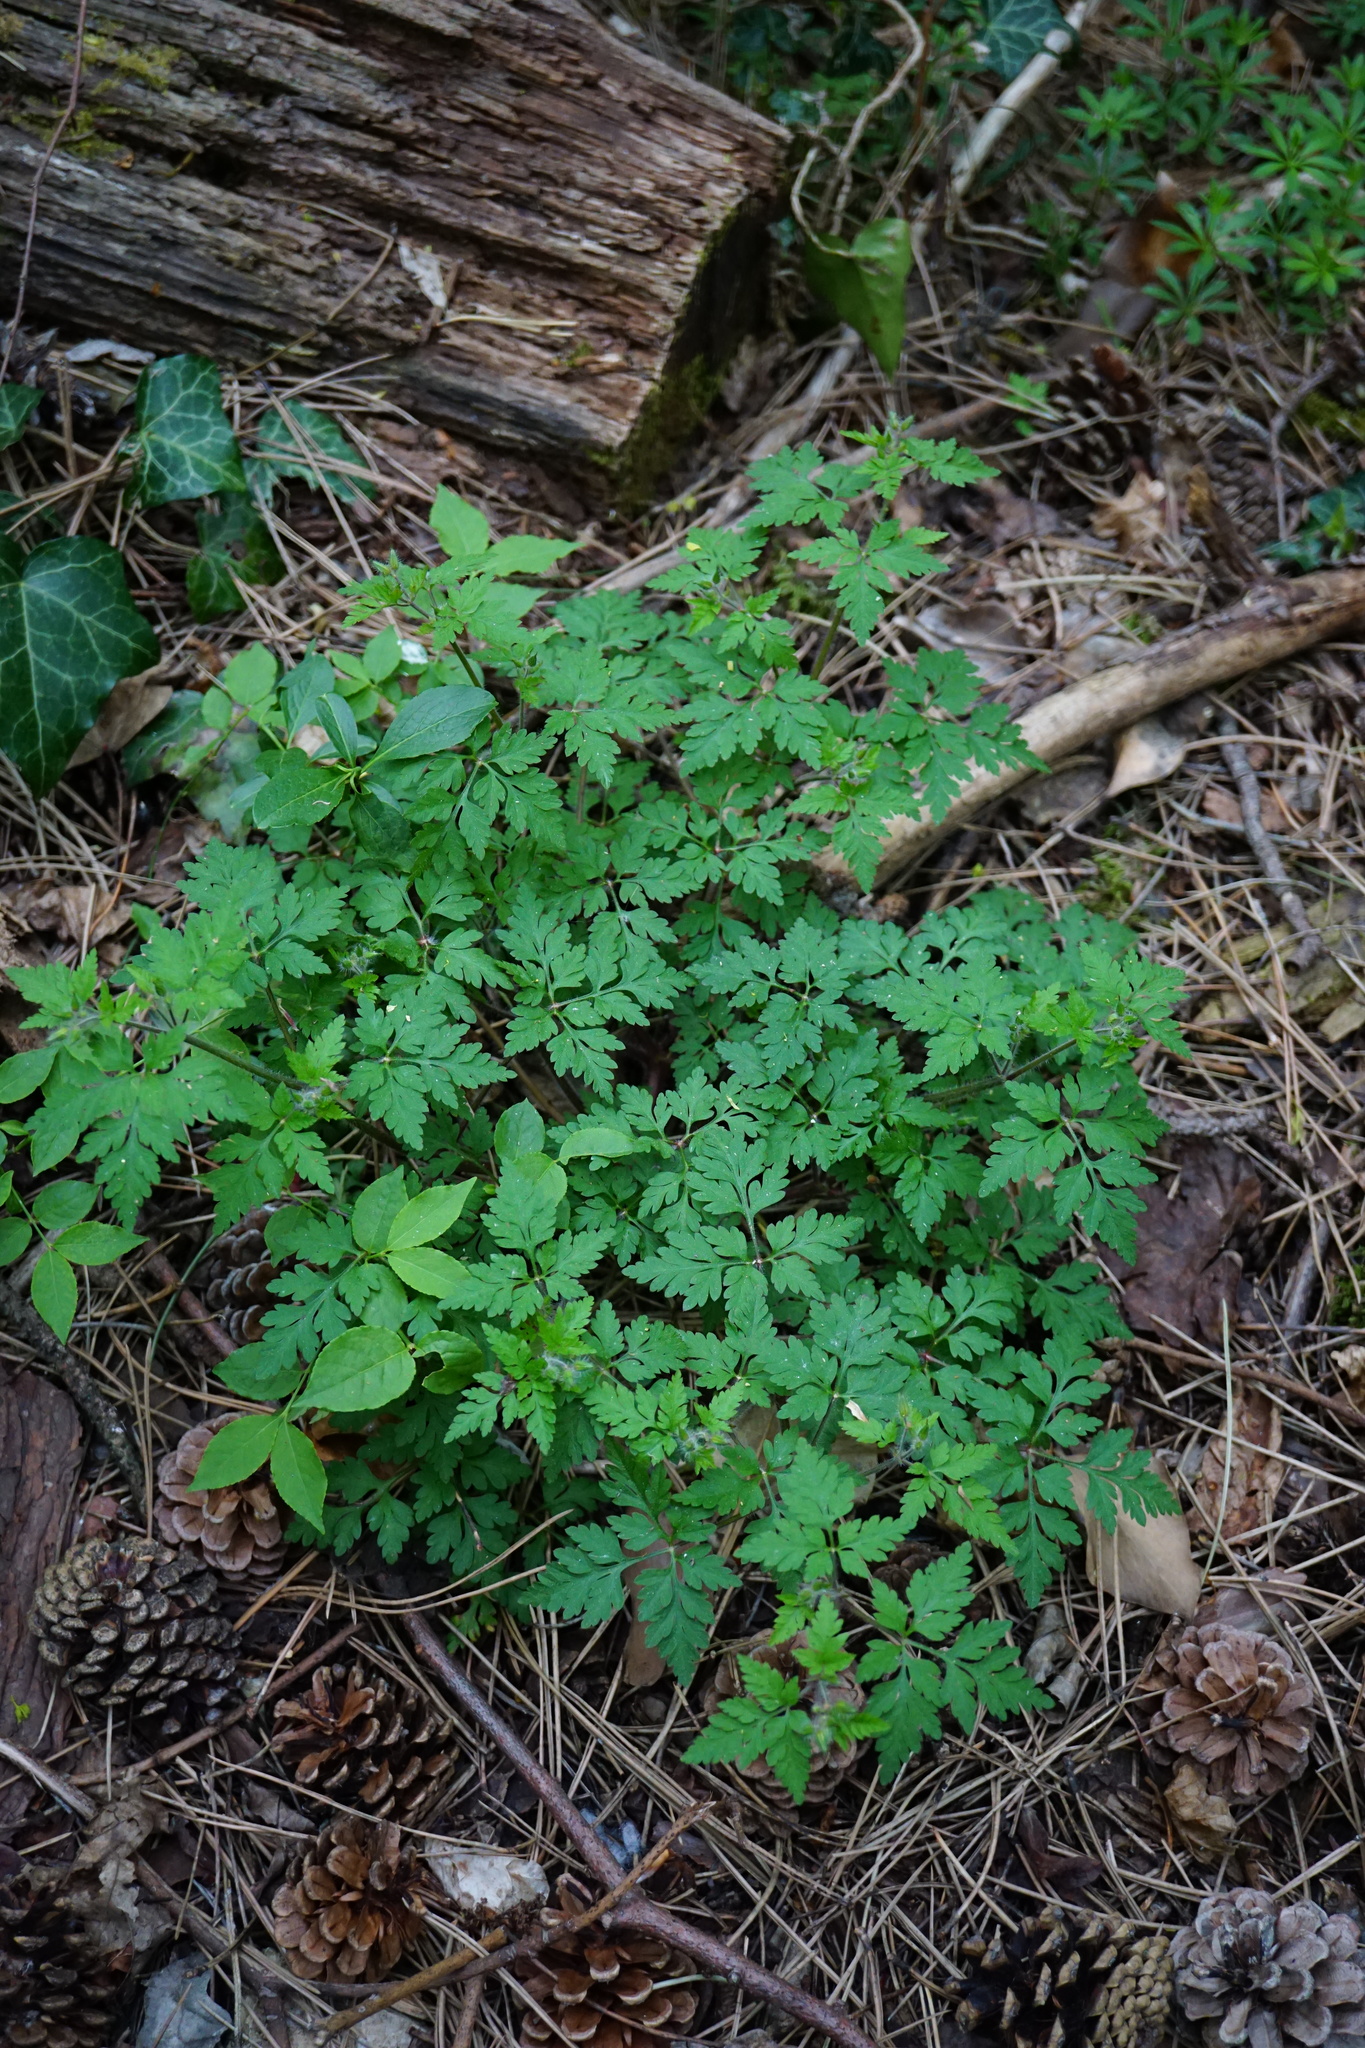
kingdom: Plantae
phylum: Tracheophyta
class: Magnoliopsida
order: Geraniales
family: Geraniaceae
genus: Geranium
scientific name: Geranium robertianum
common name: Herb-robert
